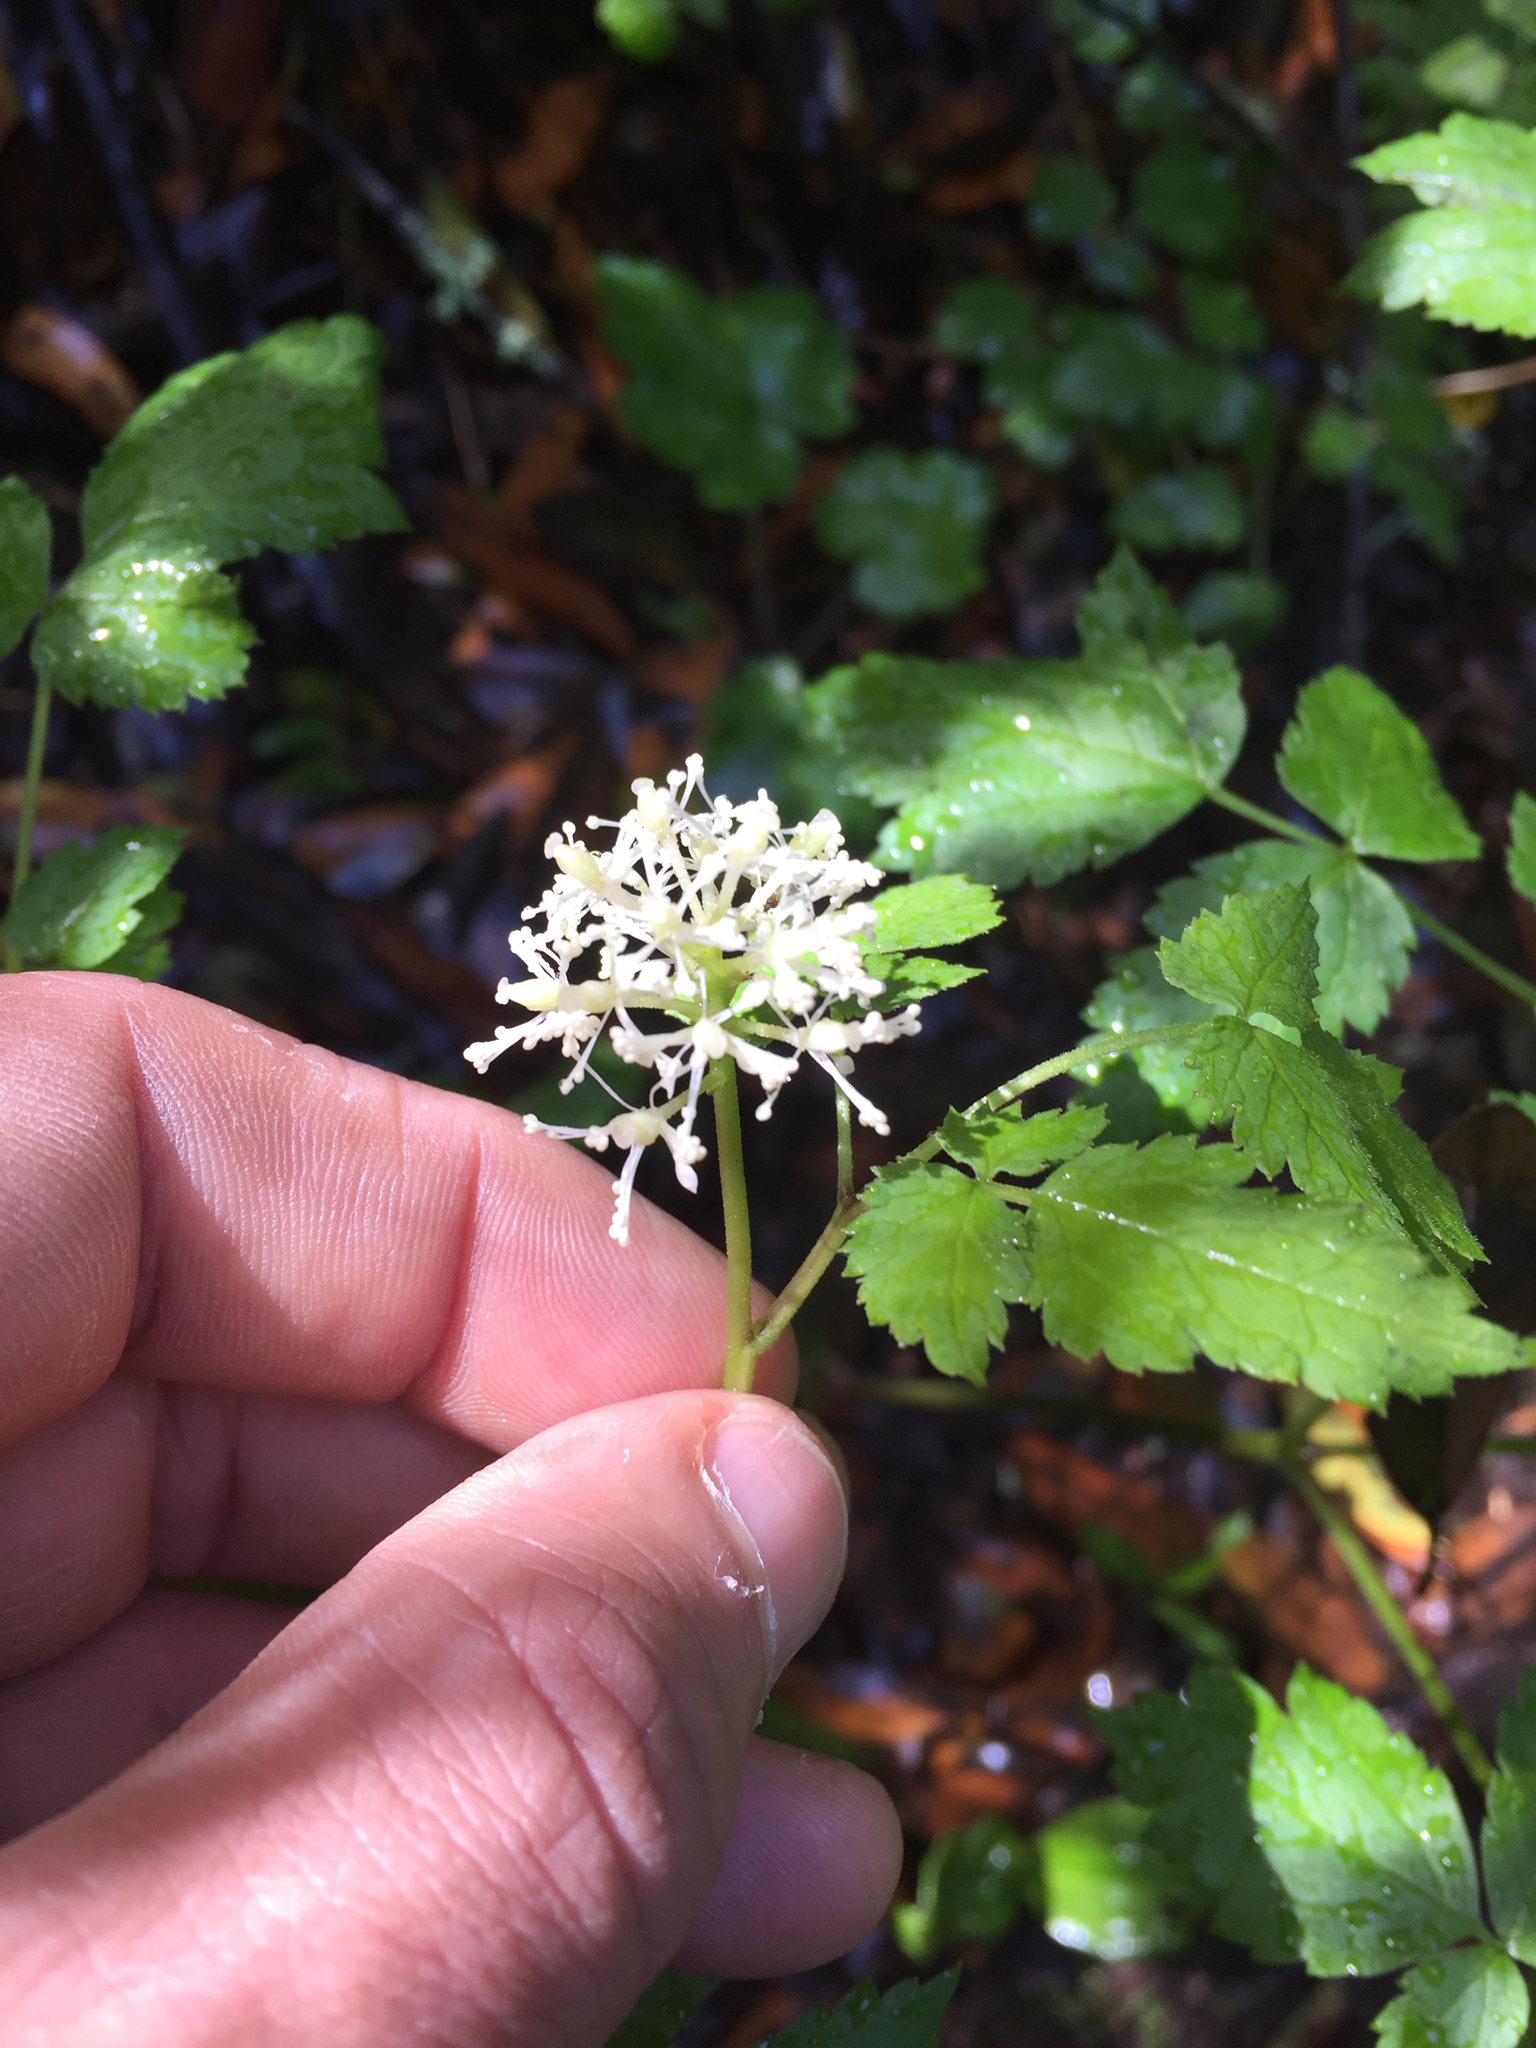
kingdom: Plantae
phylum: Tracheophyta
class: Magnoliopsida
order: Ranunculales
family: Ranunculaceae
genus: Actaea
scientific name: Actaea rubra
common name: Red baneberry
